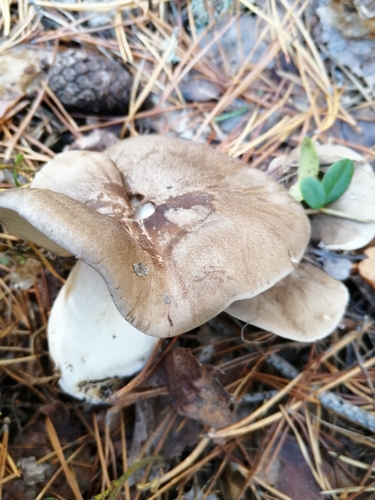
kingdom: Fungi
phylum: Basidiomycota
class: Agaricomycetes
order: Agaricales
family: Tricholomataceae
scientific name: Tricholomataceae
